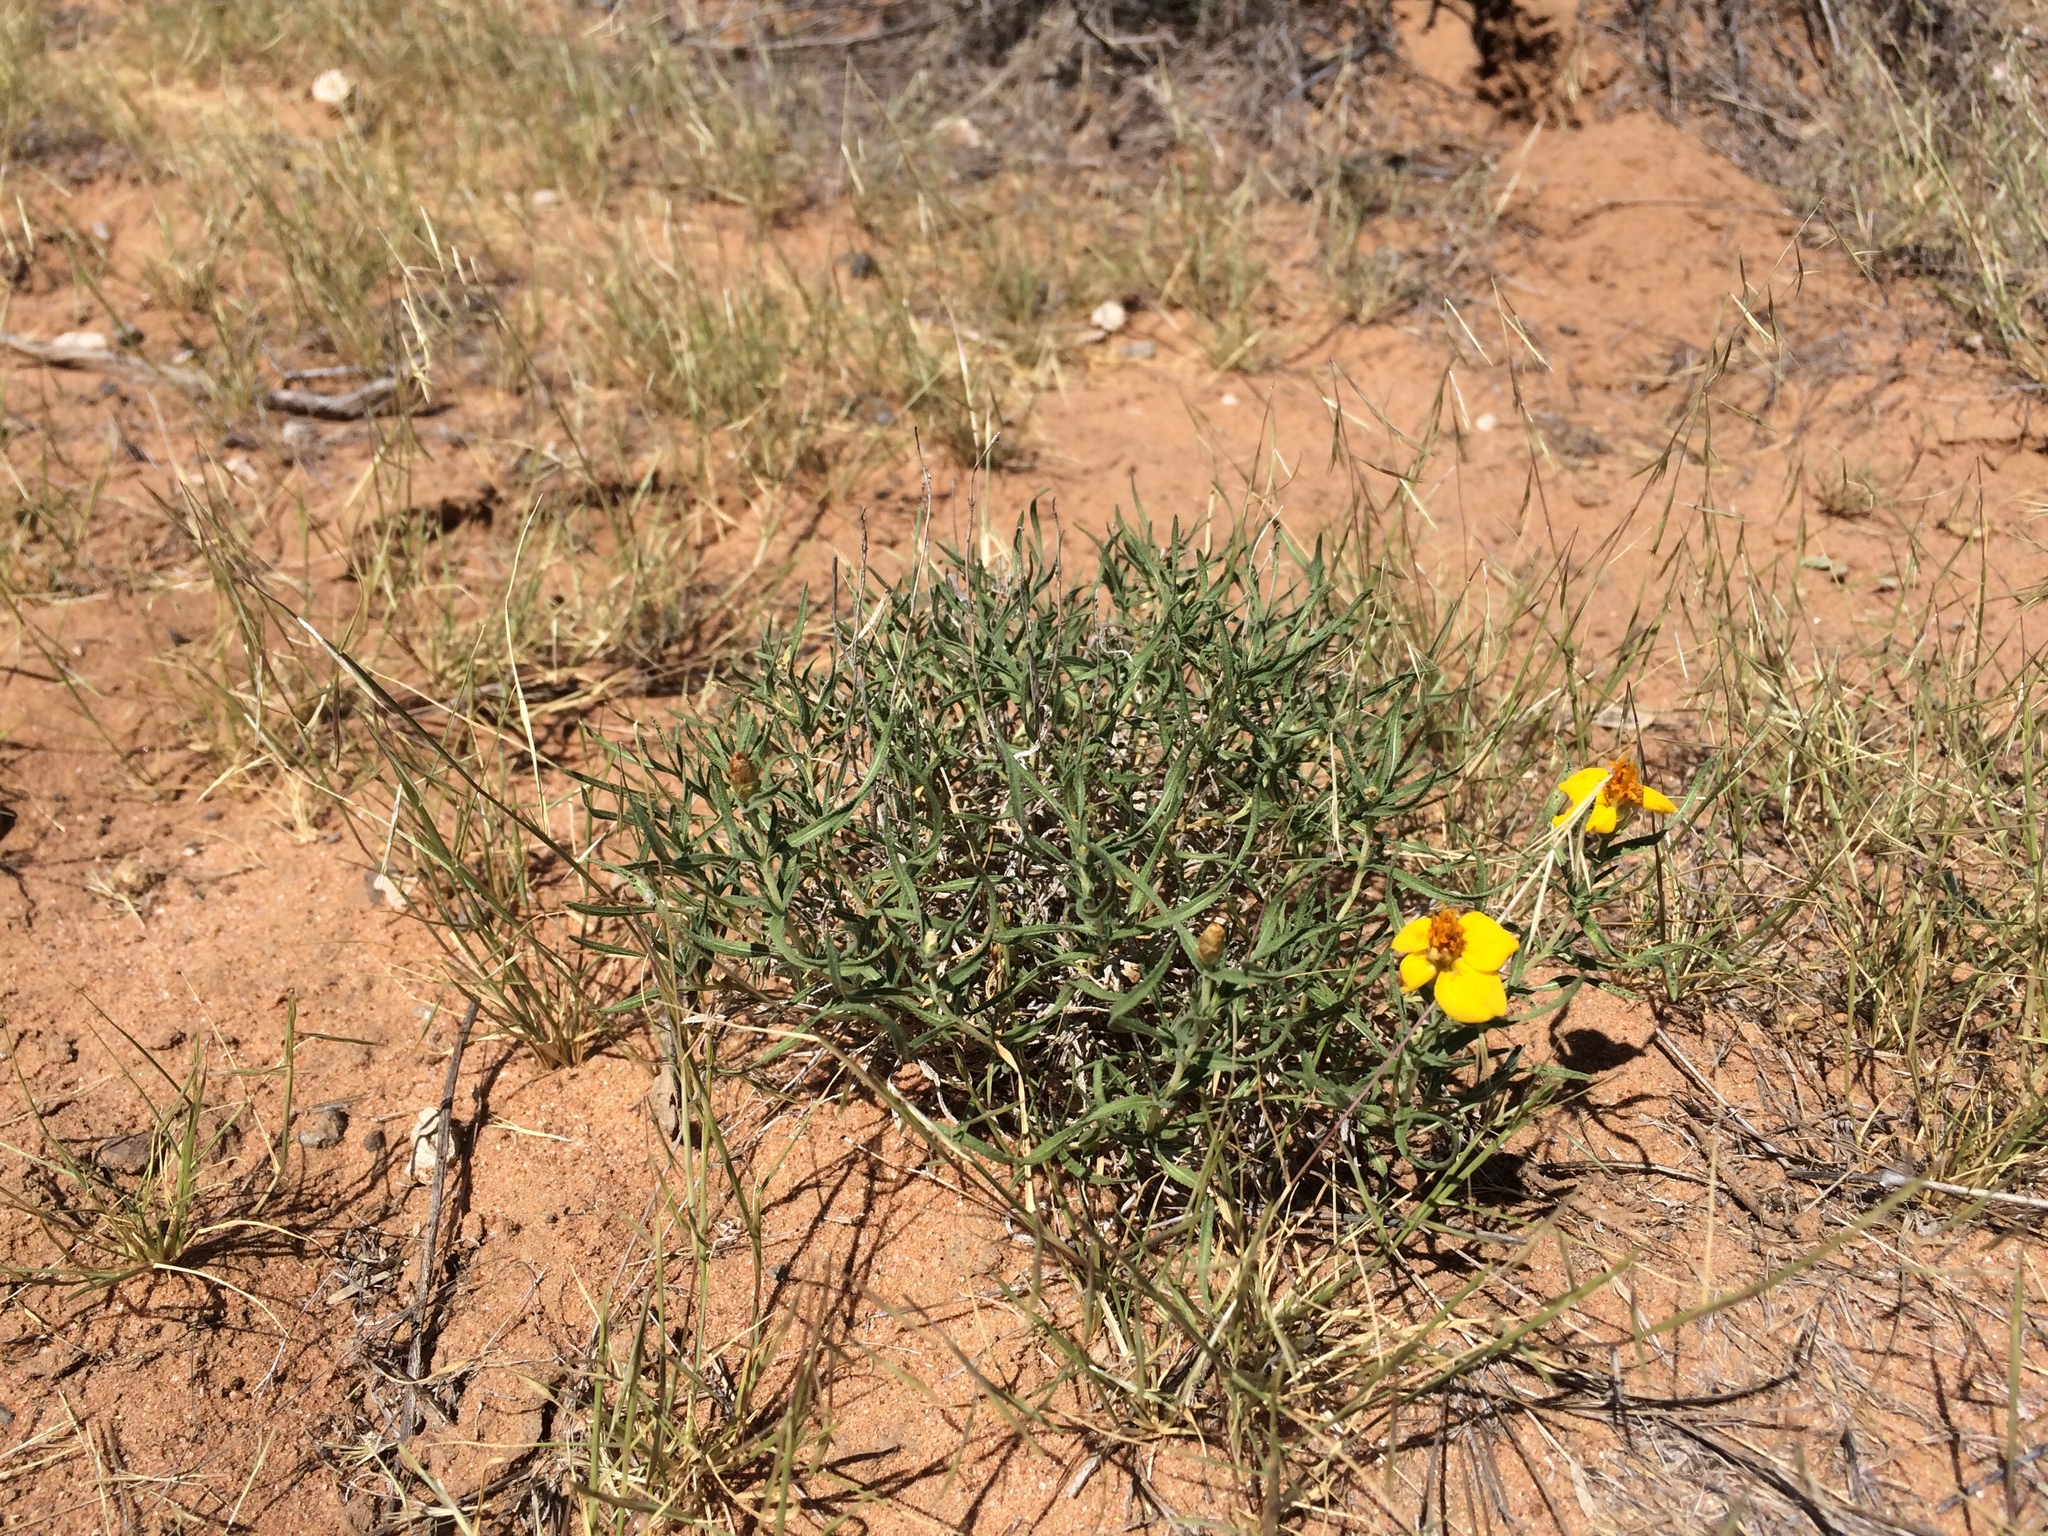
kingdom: Plantae
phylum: Tracheophyta
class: Magnoliopsida
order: Asterales
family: Asteraceae
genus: Zinnia
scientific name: Zinnia grandiflora
